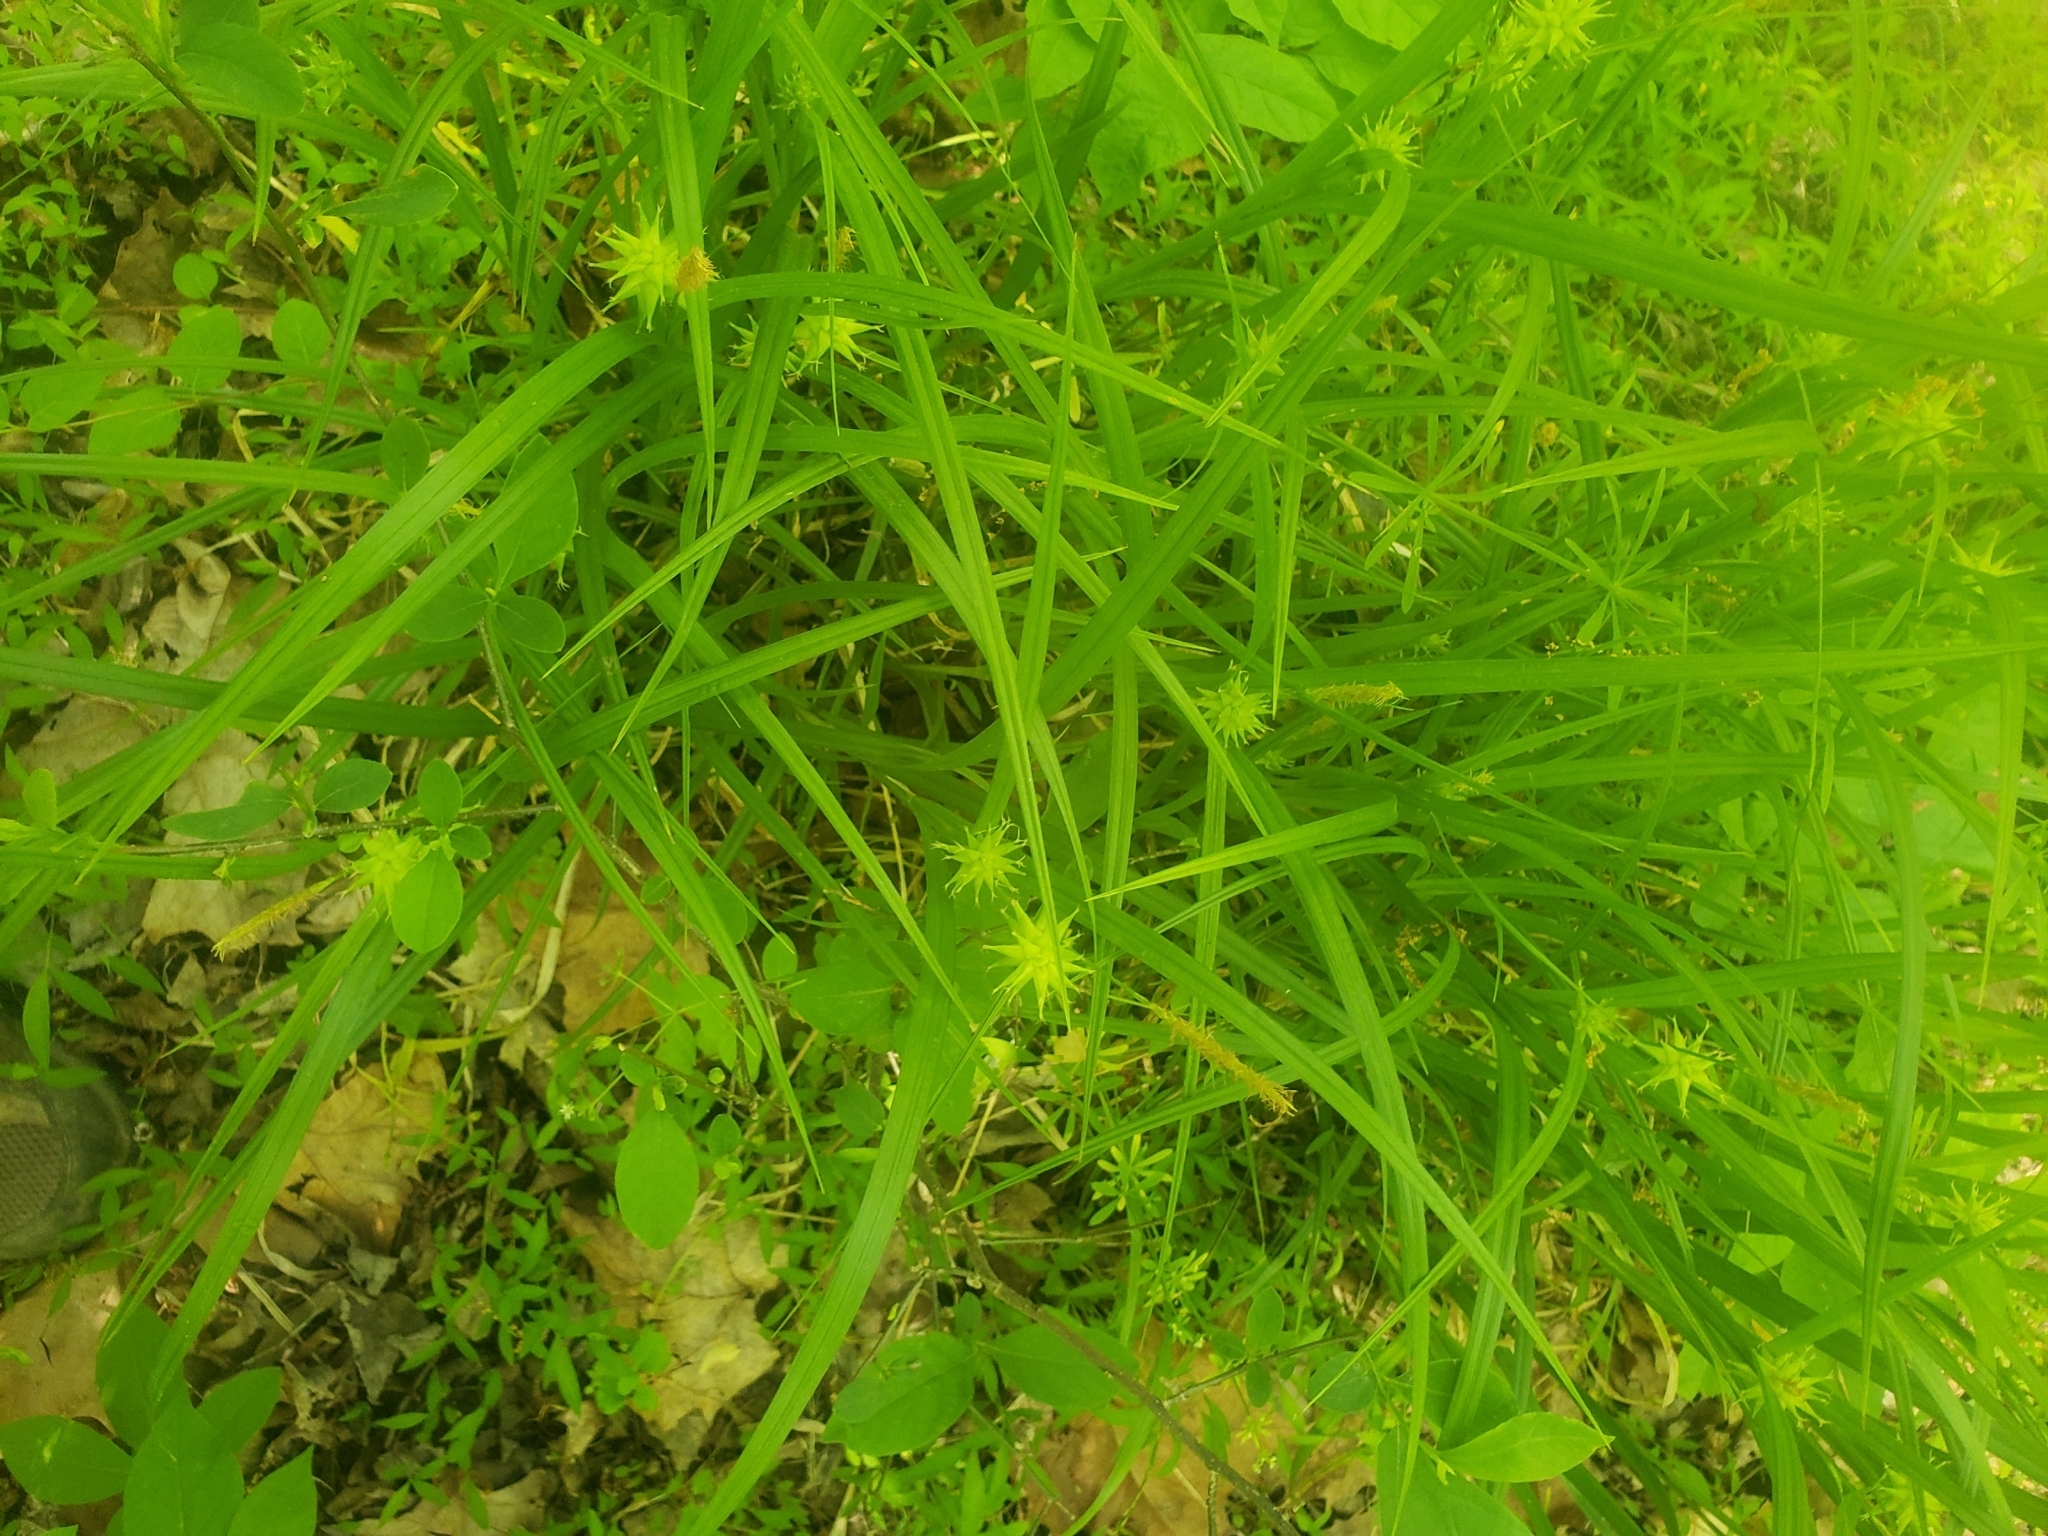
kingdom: Plantae
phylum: Tracheophyta
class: Liliopsida
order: Poales
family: Cyperaceae
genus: Carex
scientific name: Carex grayi
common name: Asa gray's sedge
